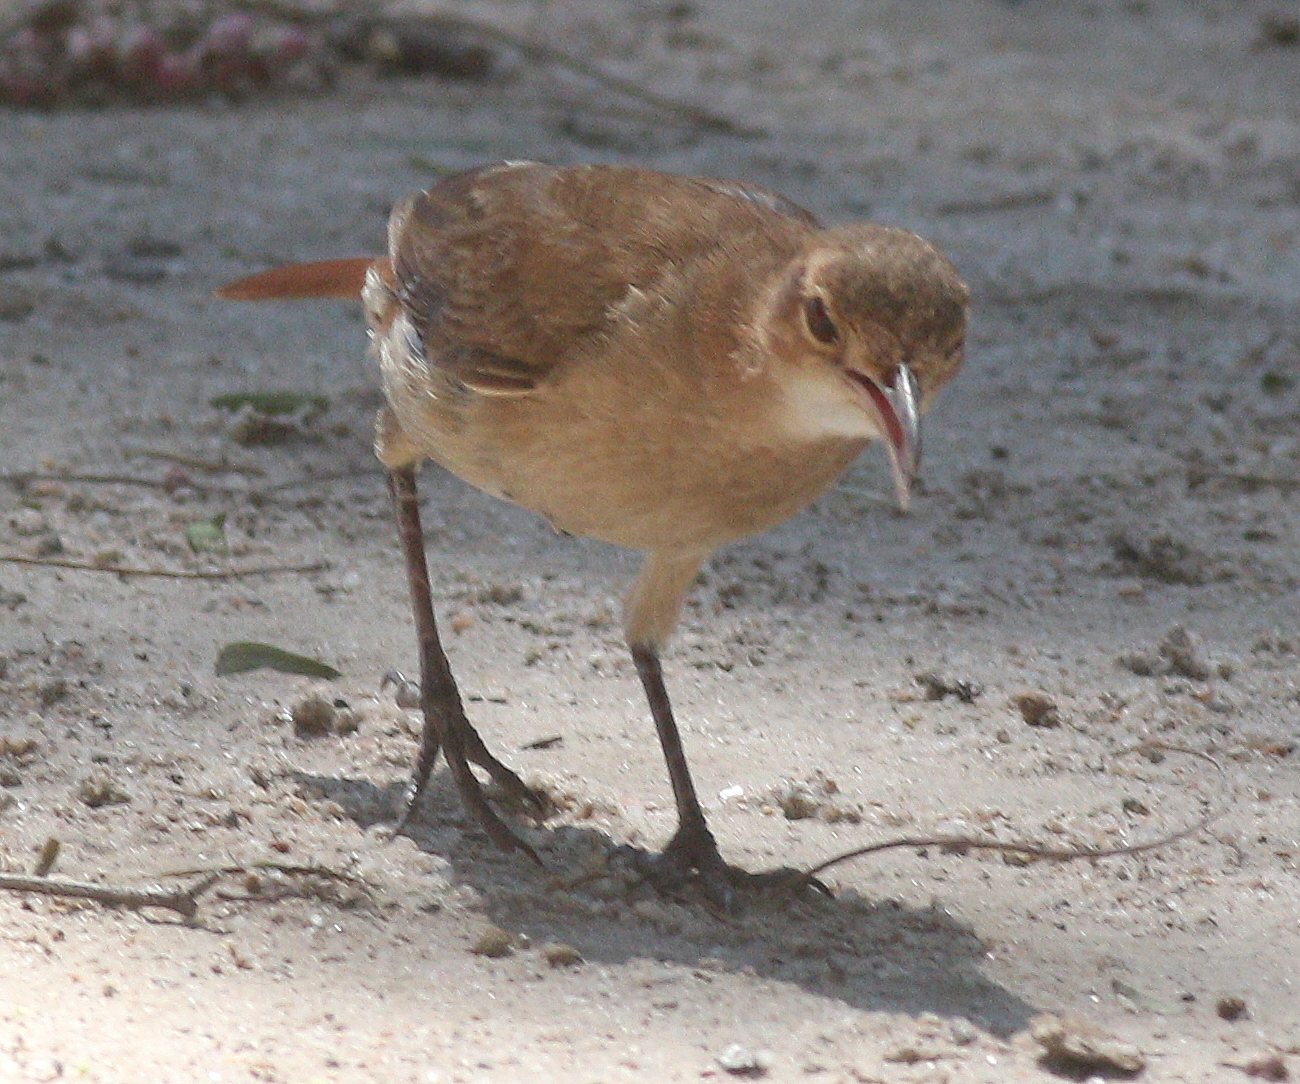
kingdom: Animalia
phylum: Chordata
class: Aves
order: Passeriformes
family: Furnariidae
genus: Furnarius
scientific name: Furnarius rufus
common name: Rufous hornero
